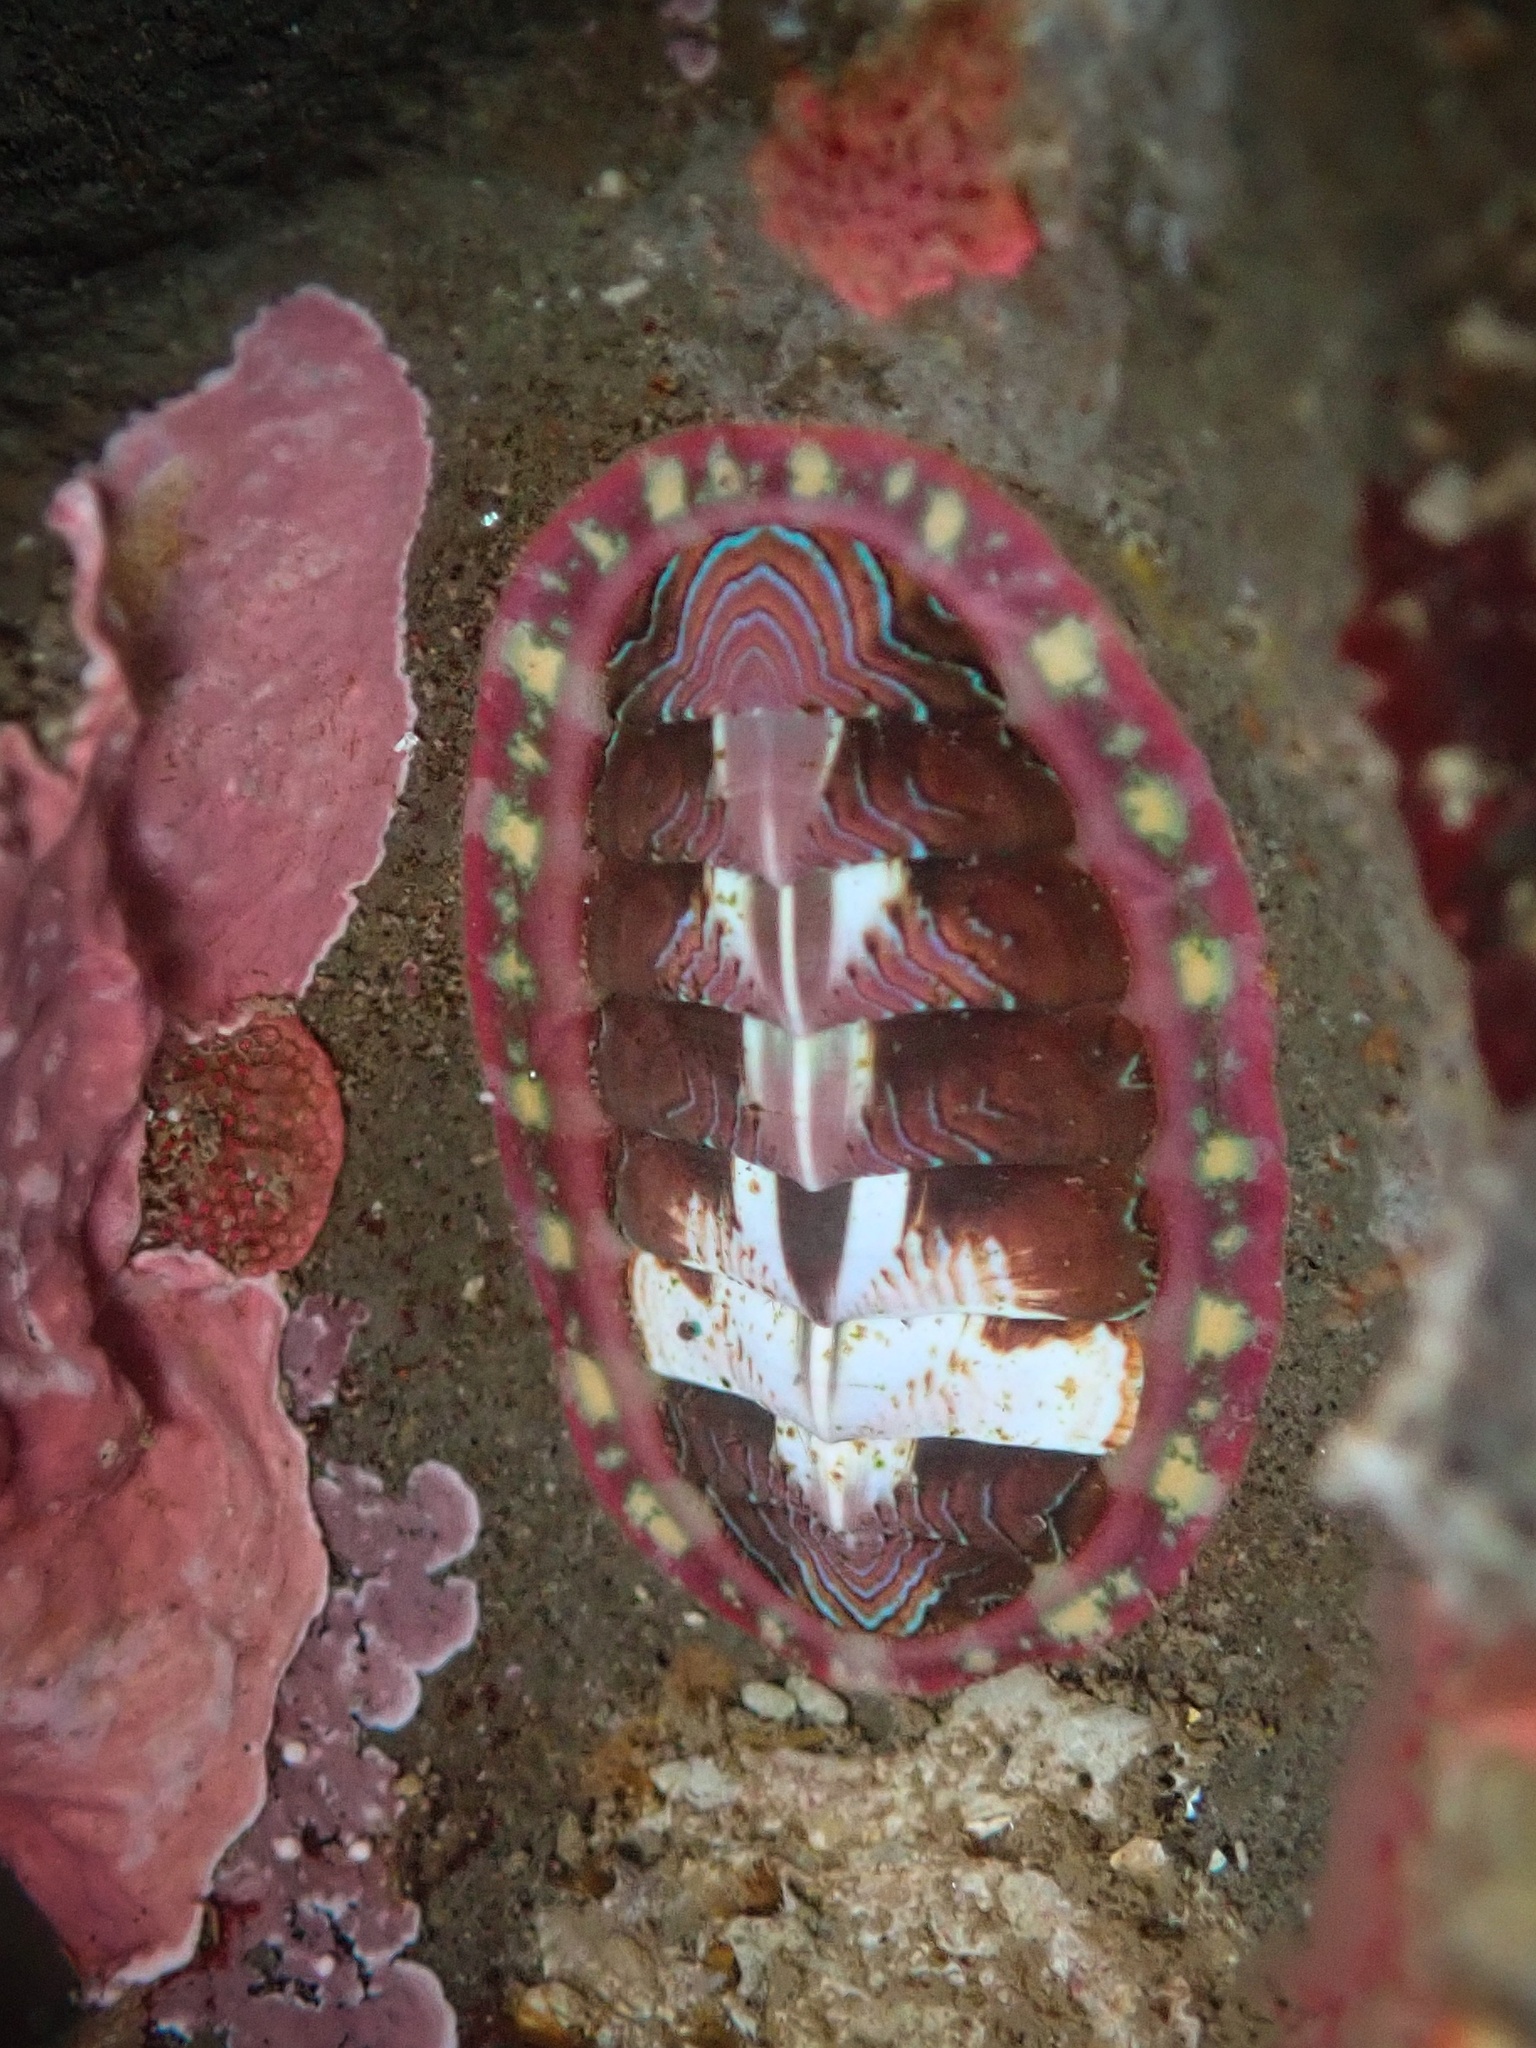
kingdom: Animalia
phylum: Mollusca
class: Polyplacophora
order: Chitonida
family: Tonicellidae
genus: Tonicella
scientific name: Tonicella lineata
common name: Lined chiton
